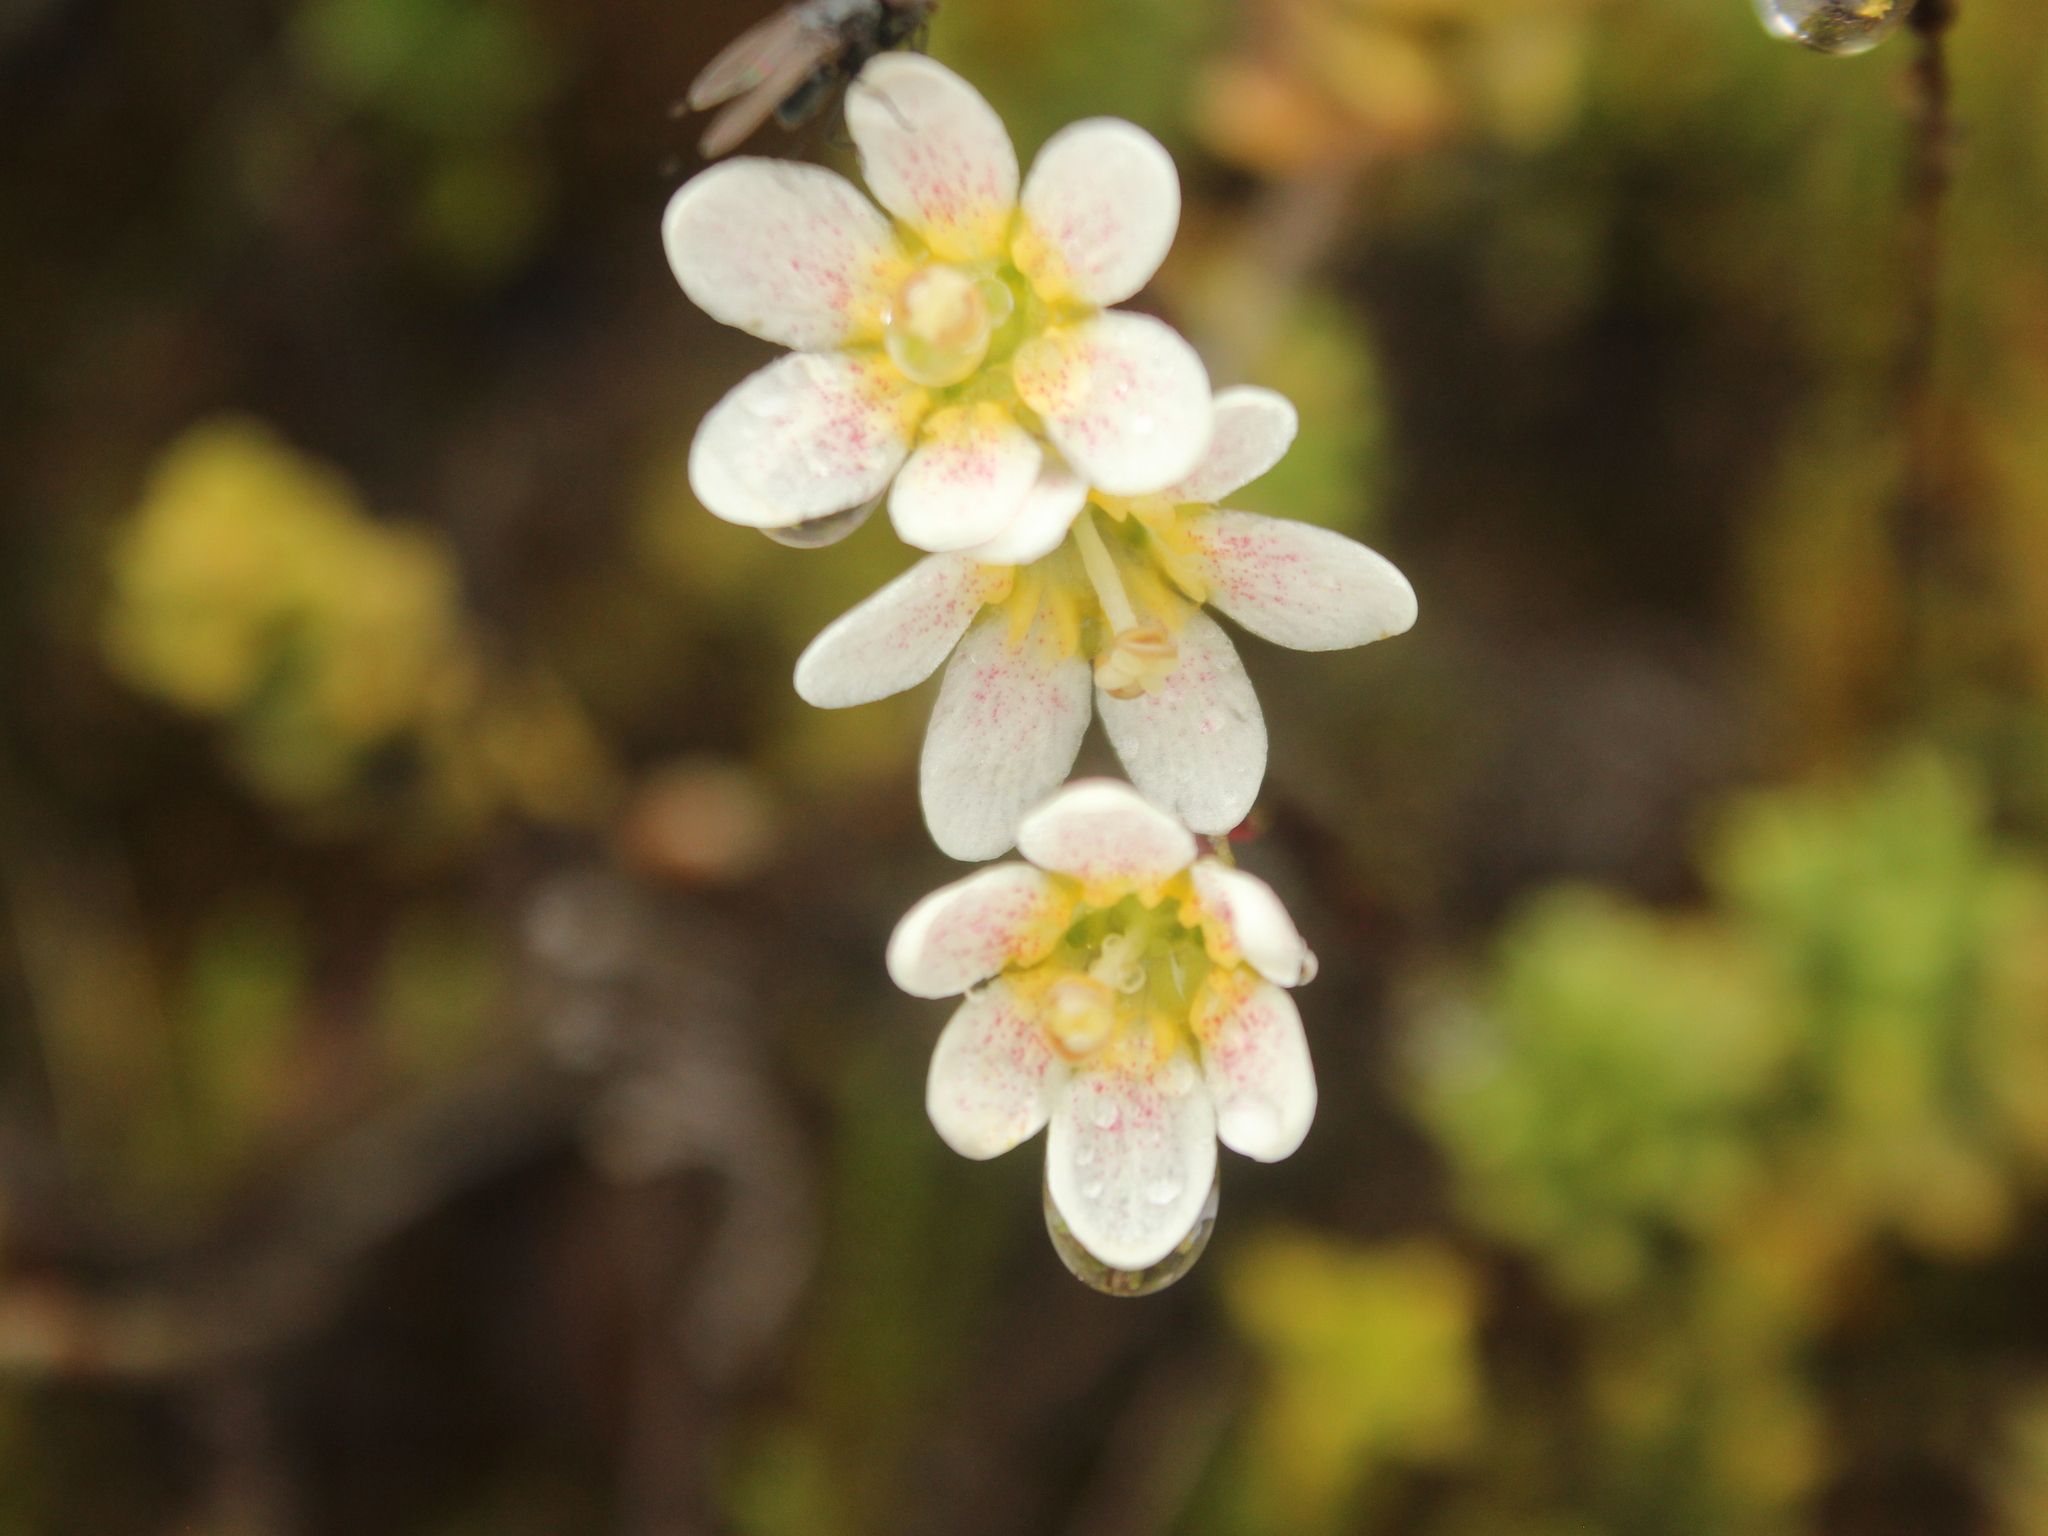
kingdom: Plantae
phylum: Tracheophyta
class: Magnoliopsida
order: Asterales
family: Stylidiaceae
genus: Forstera
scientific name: Forstera tenella
